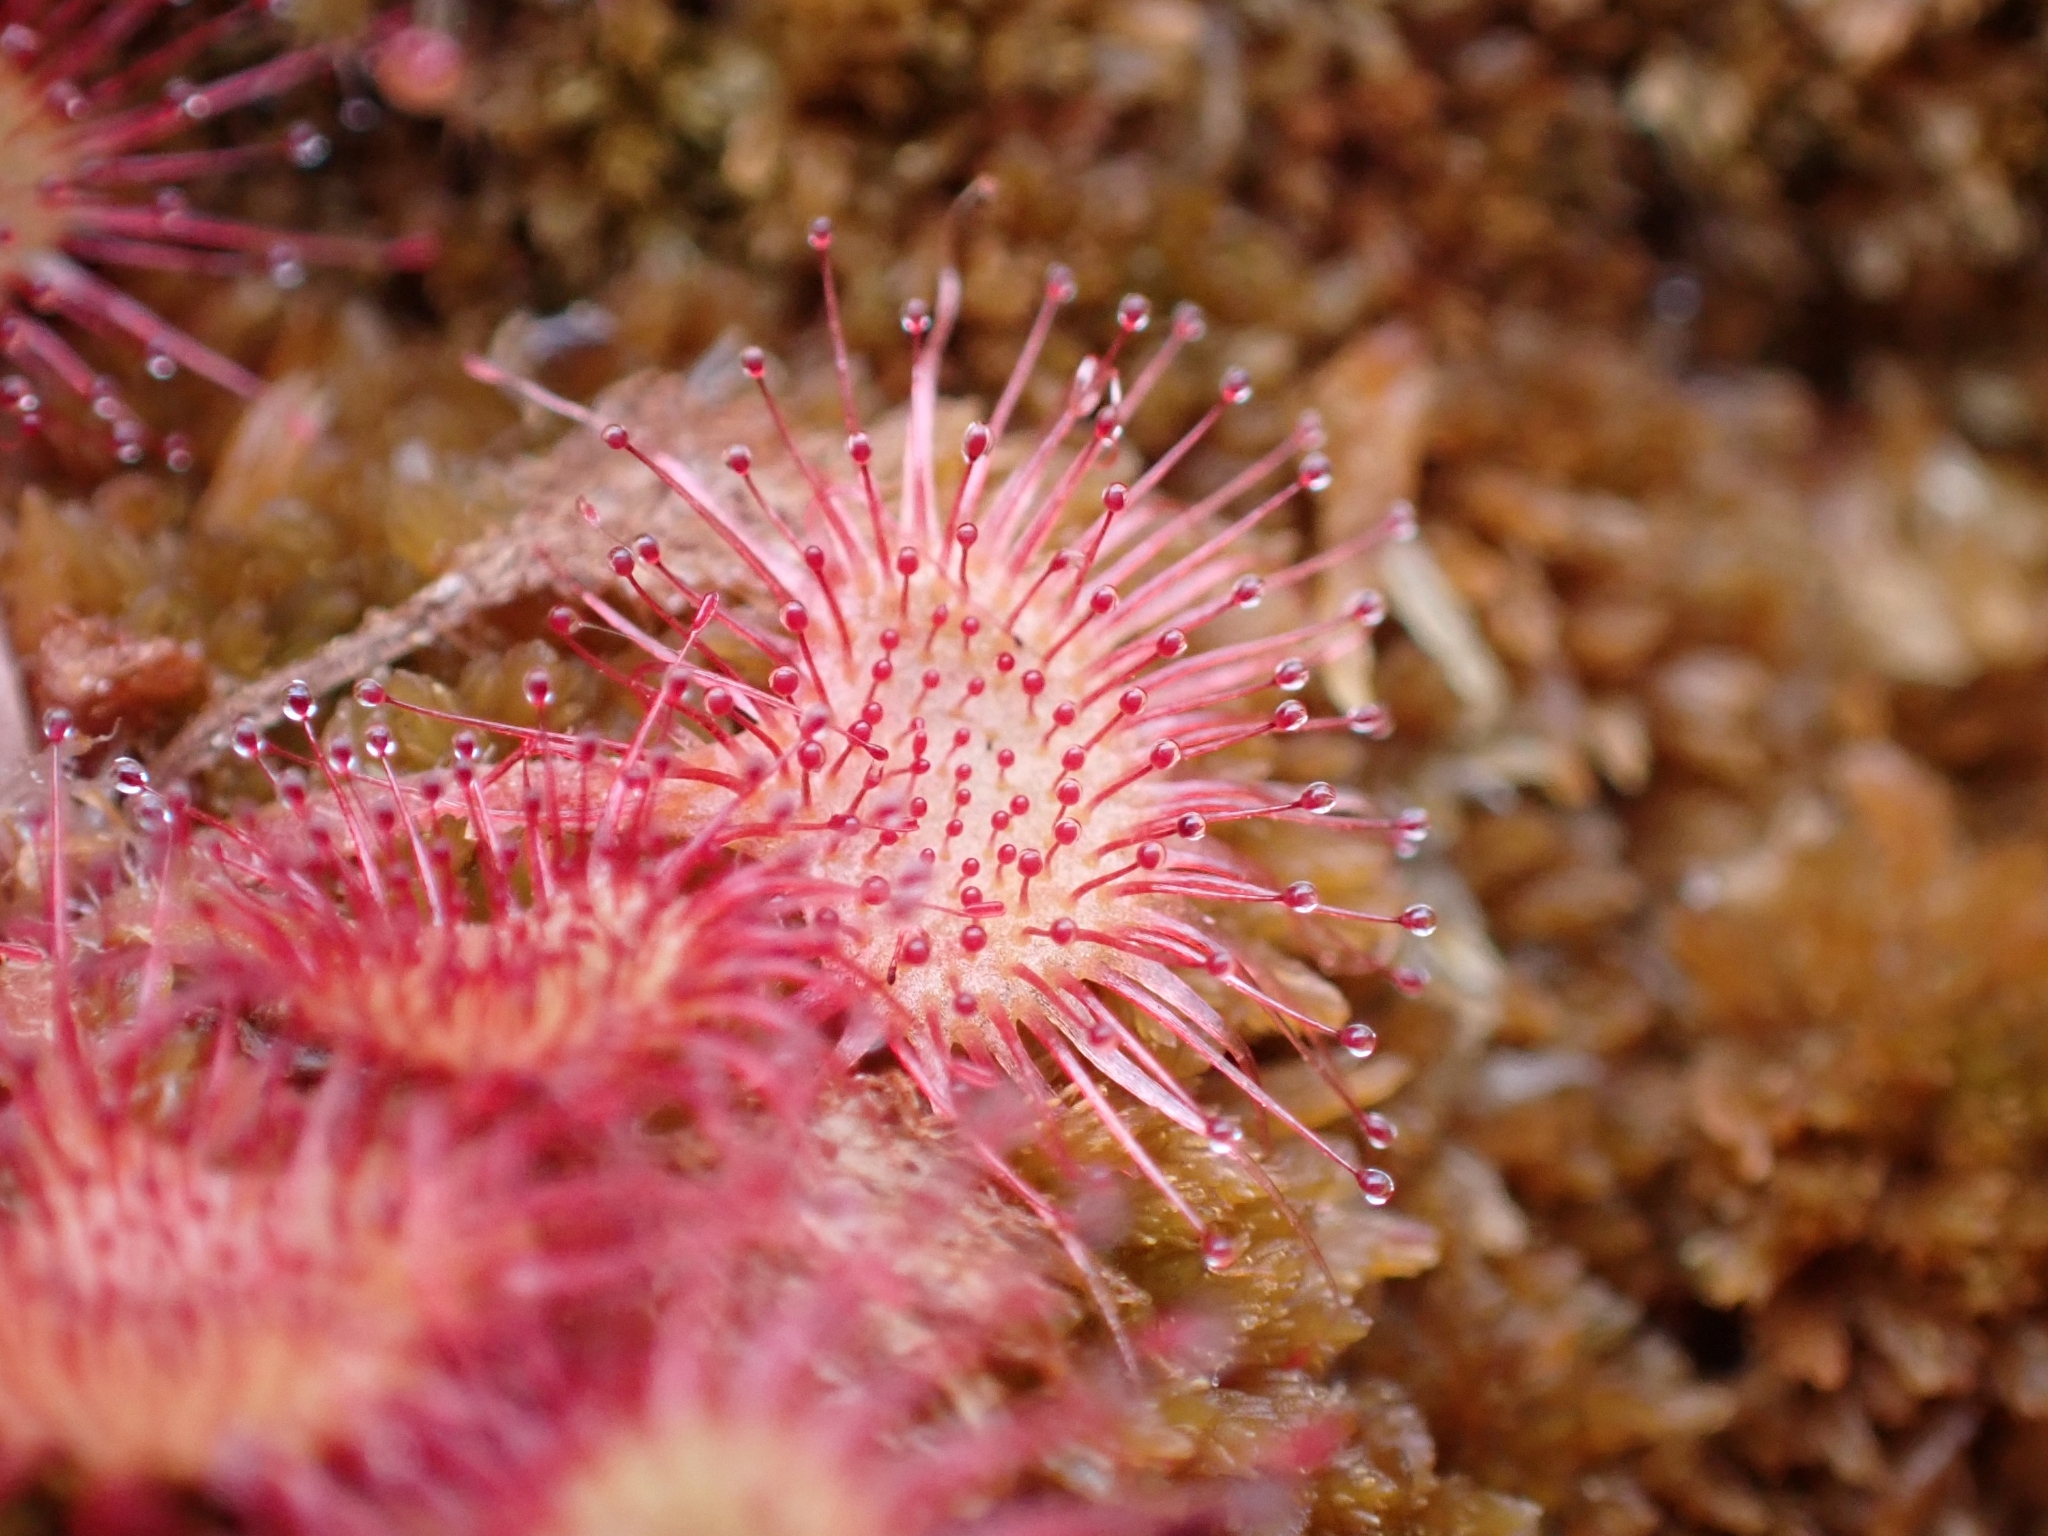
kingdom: Plantae
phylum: Tracheophyta
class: Magnoliopsida
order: Caryophyllales
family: Droseraceae
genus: Drosera
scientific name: Drosera rotundifolia
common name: Round-leaved sundew
